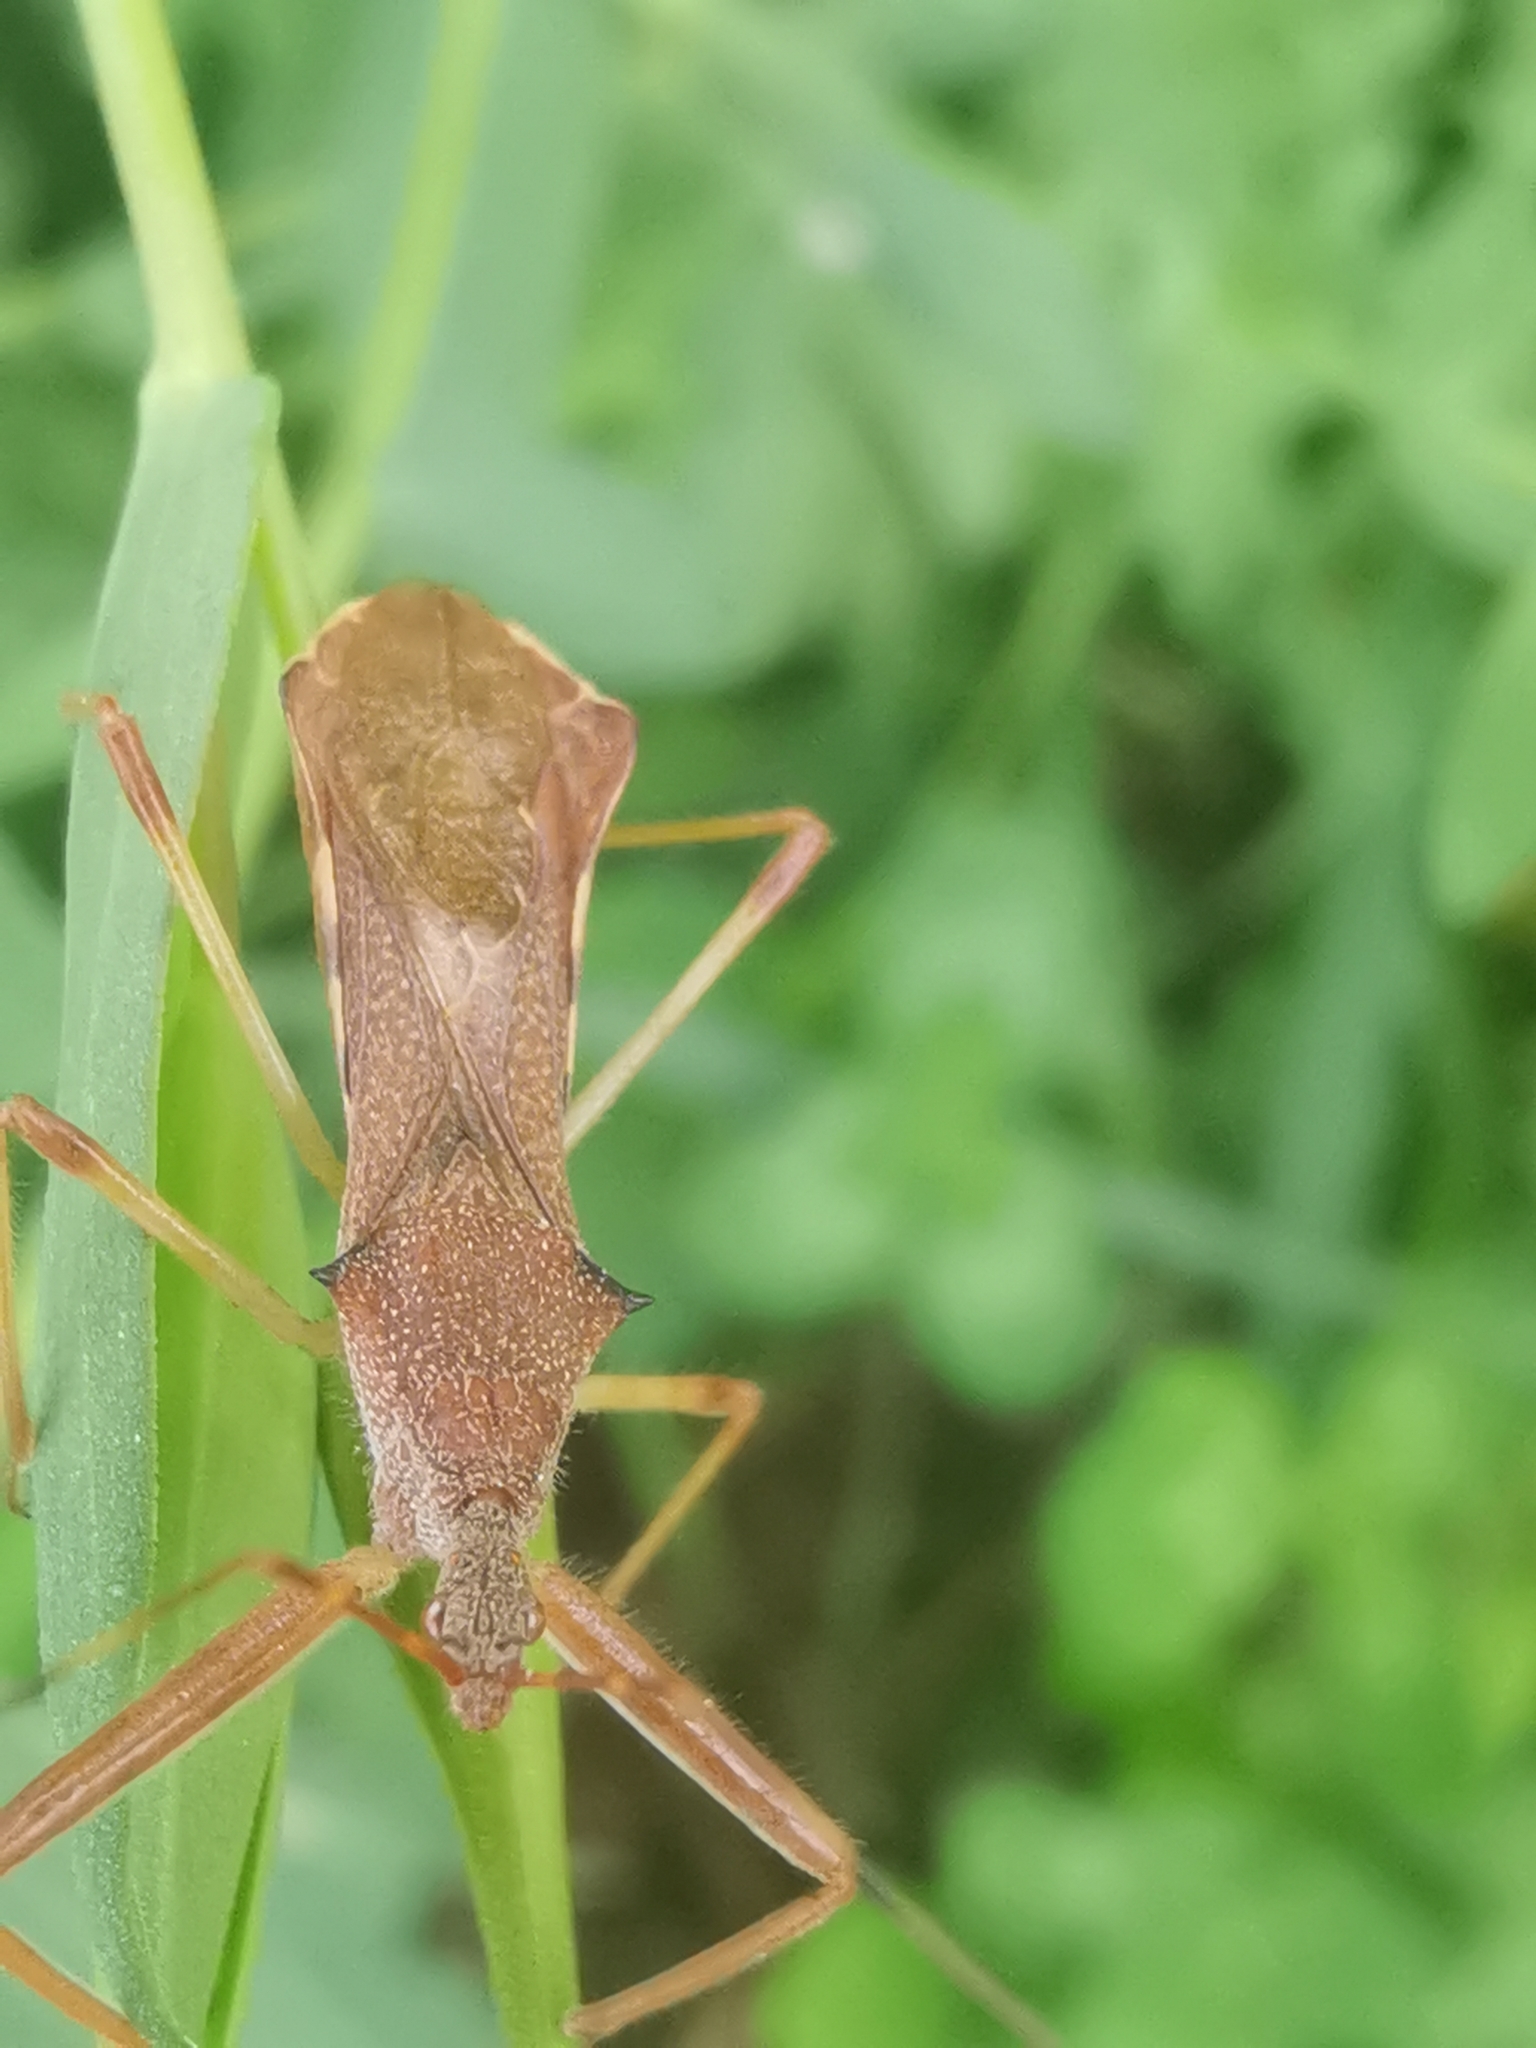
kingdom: Animalia
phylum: Arthropoda
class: Insecta
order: Hemiptera
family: Reduviidae
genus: Nagusta
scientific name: Nagusta goedelii
